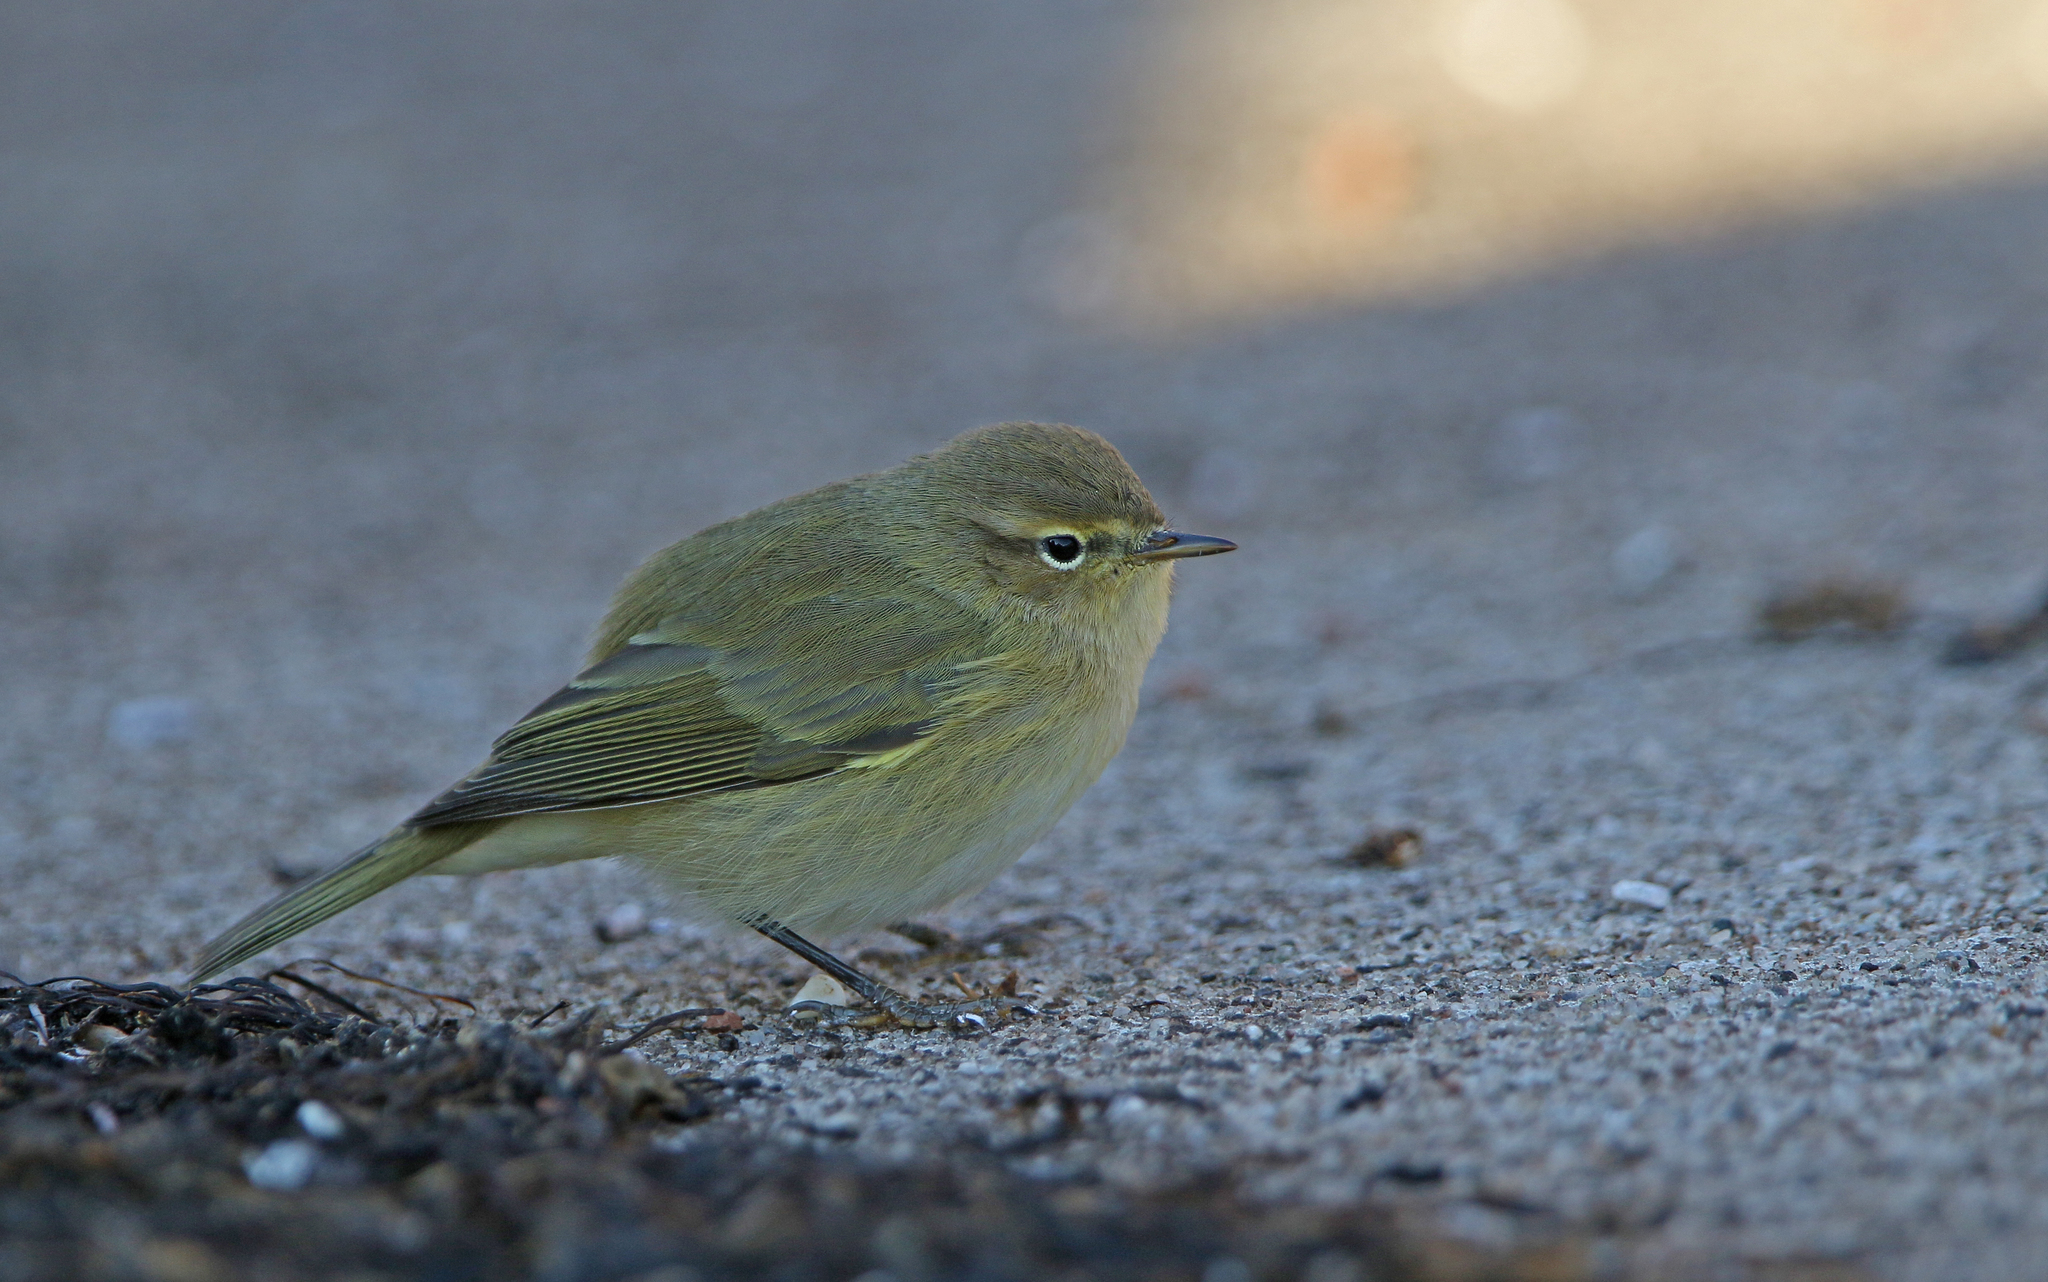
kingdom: Animalia
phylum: Chordata
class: Aves
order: Passeriformes
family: Phylloscopidae
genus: Phylloscopus
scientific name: Phylloscopus collybita
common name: Common chiffchaff
